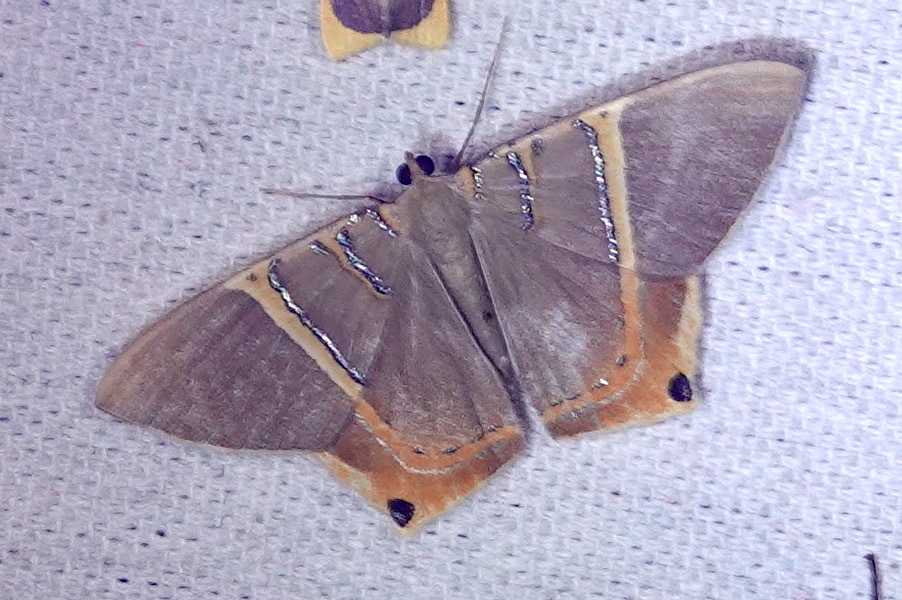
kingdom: Animalia
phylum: Arthropoda
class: Insecta
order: Lepidoptera
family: Geometridae
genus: Phrygionis
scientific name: Phrygionis polita
